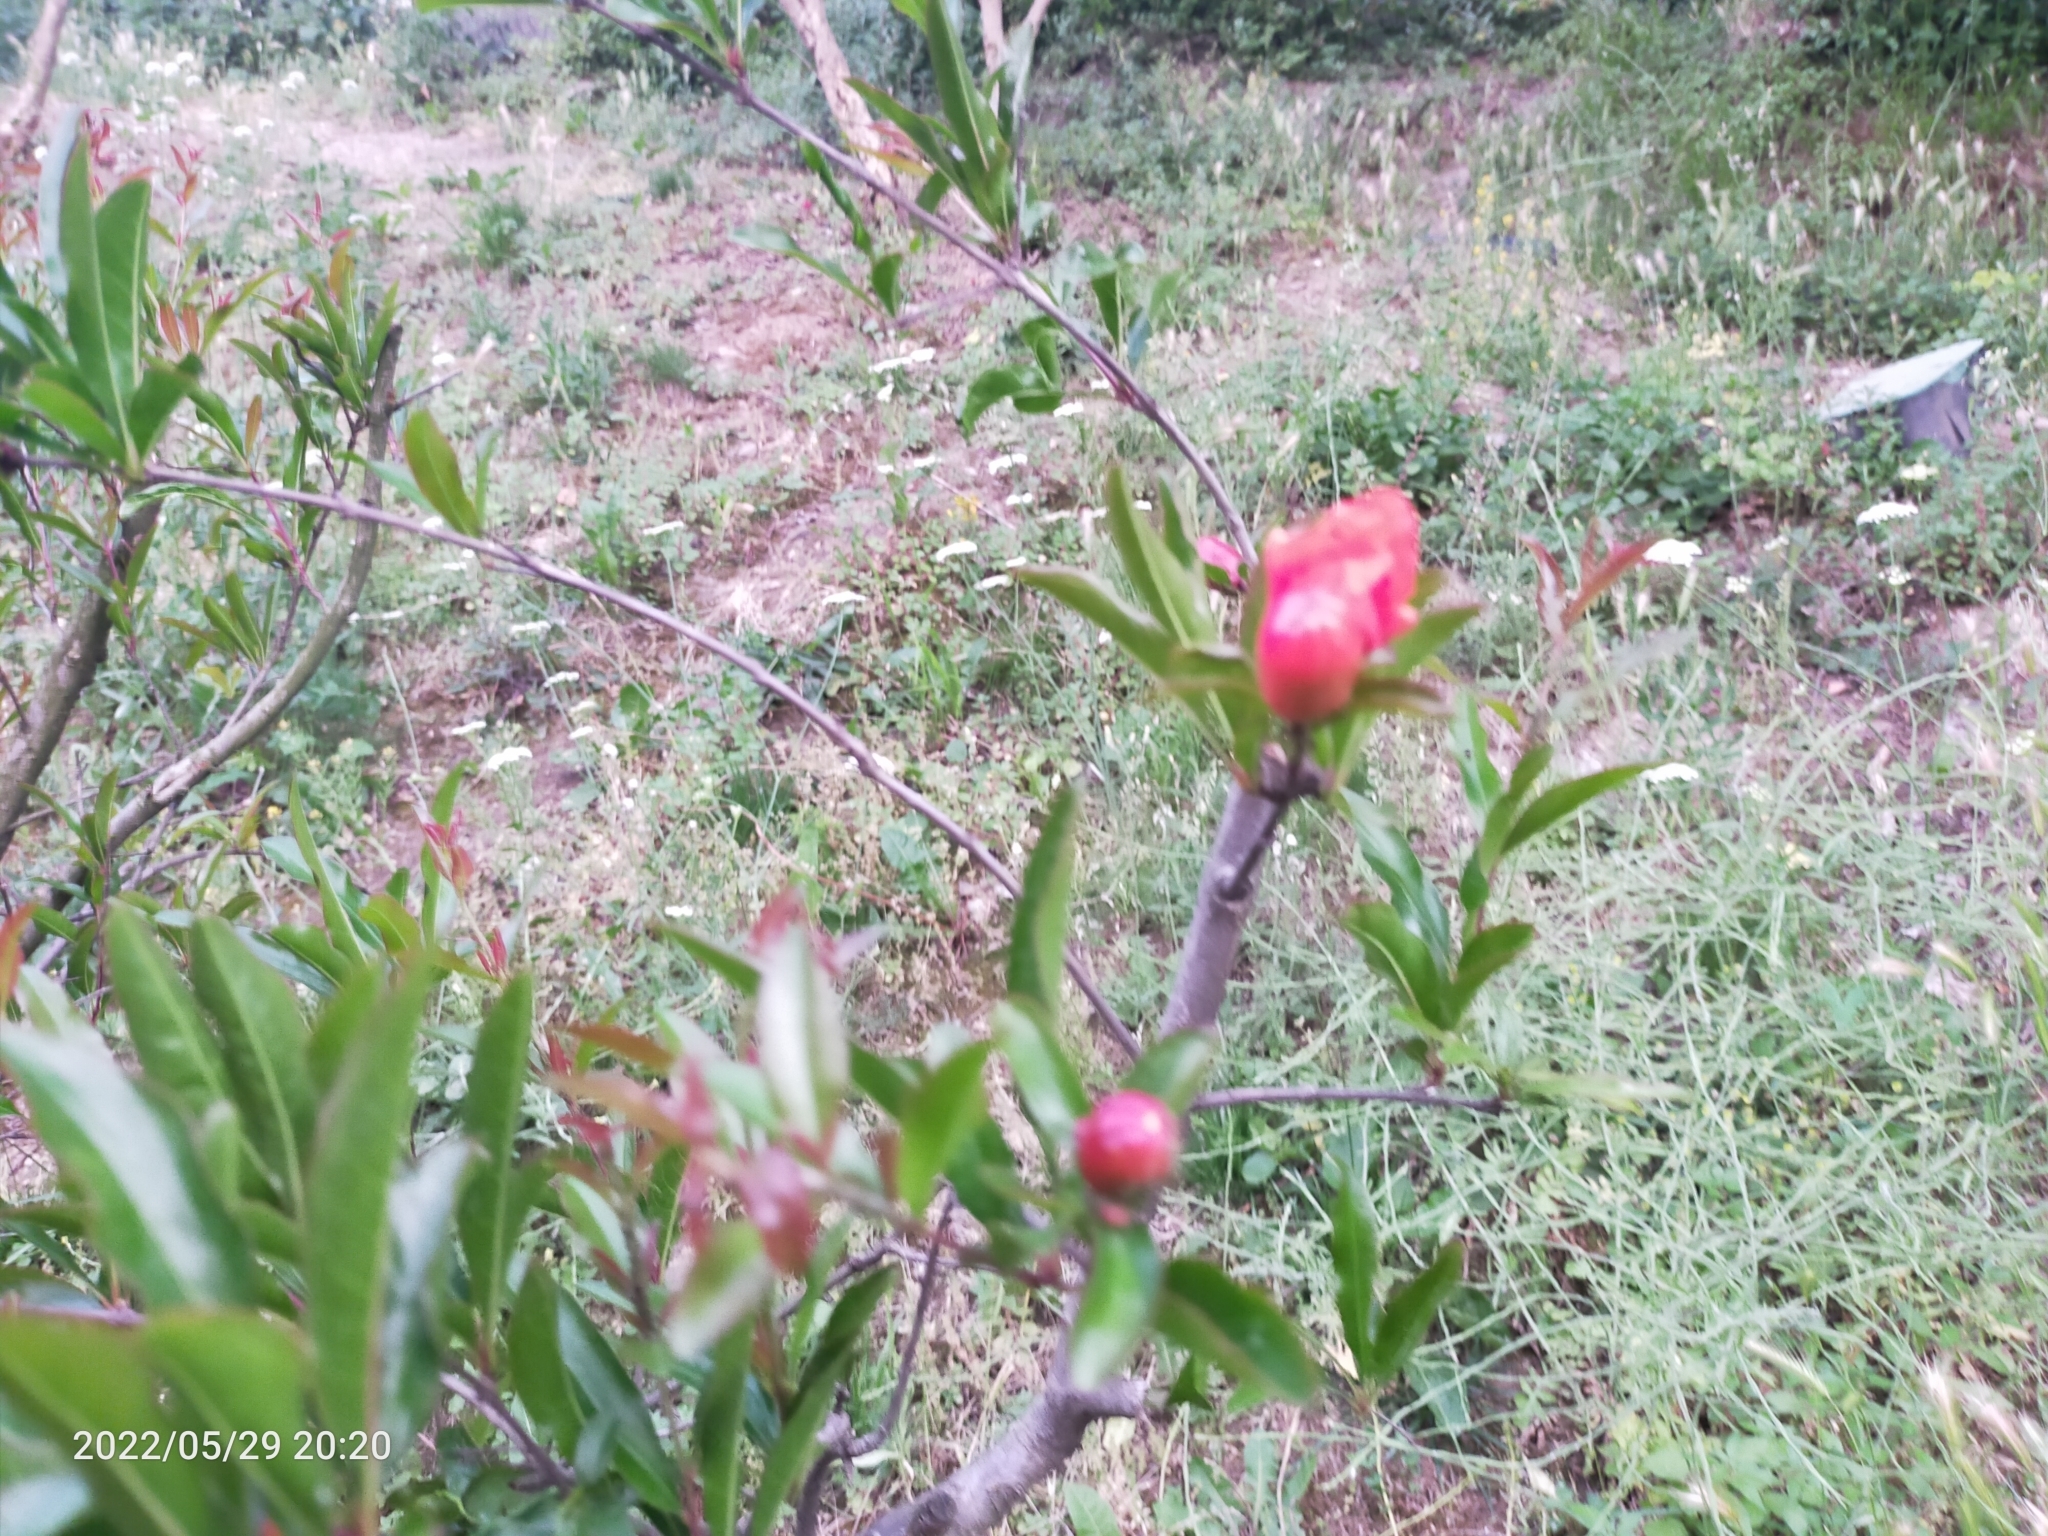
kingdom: Plantae
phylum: Tracheophyta
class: Magnoliopsida
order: Myrtales
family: Lythraceae
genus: Punica
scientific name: Punica granatum
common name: Pomegranate
